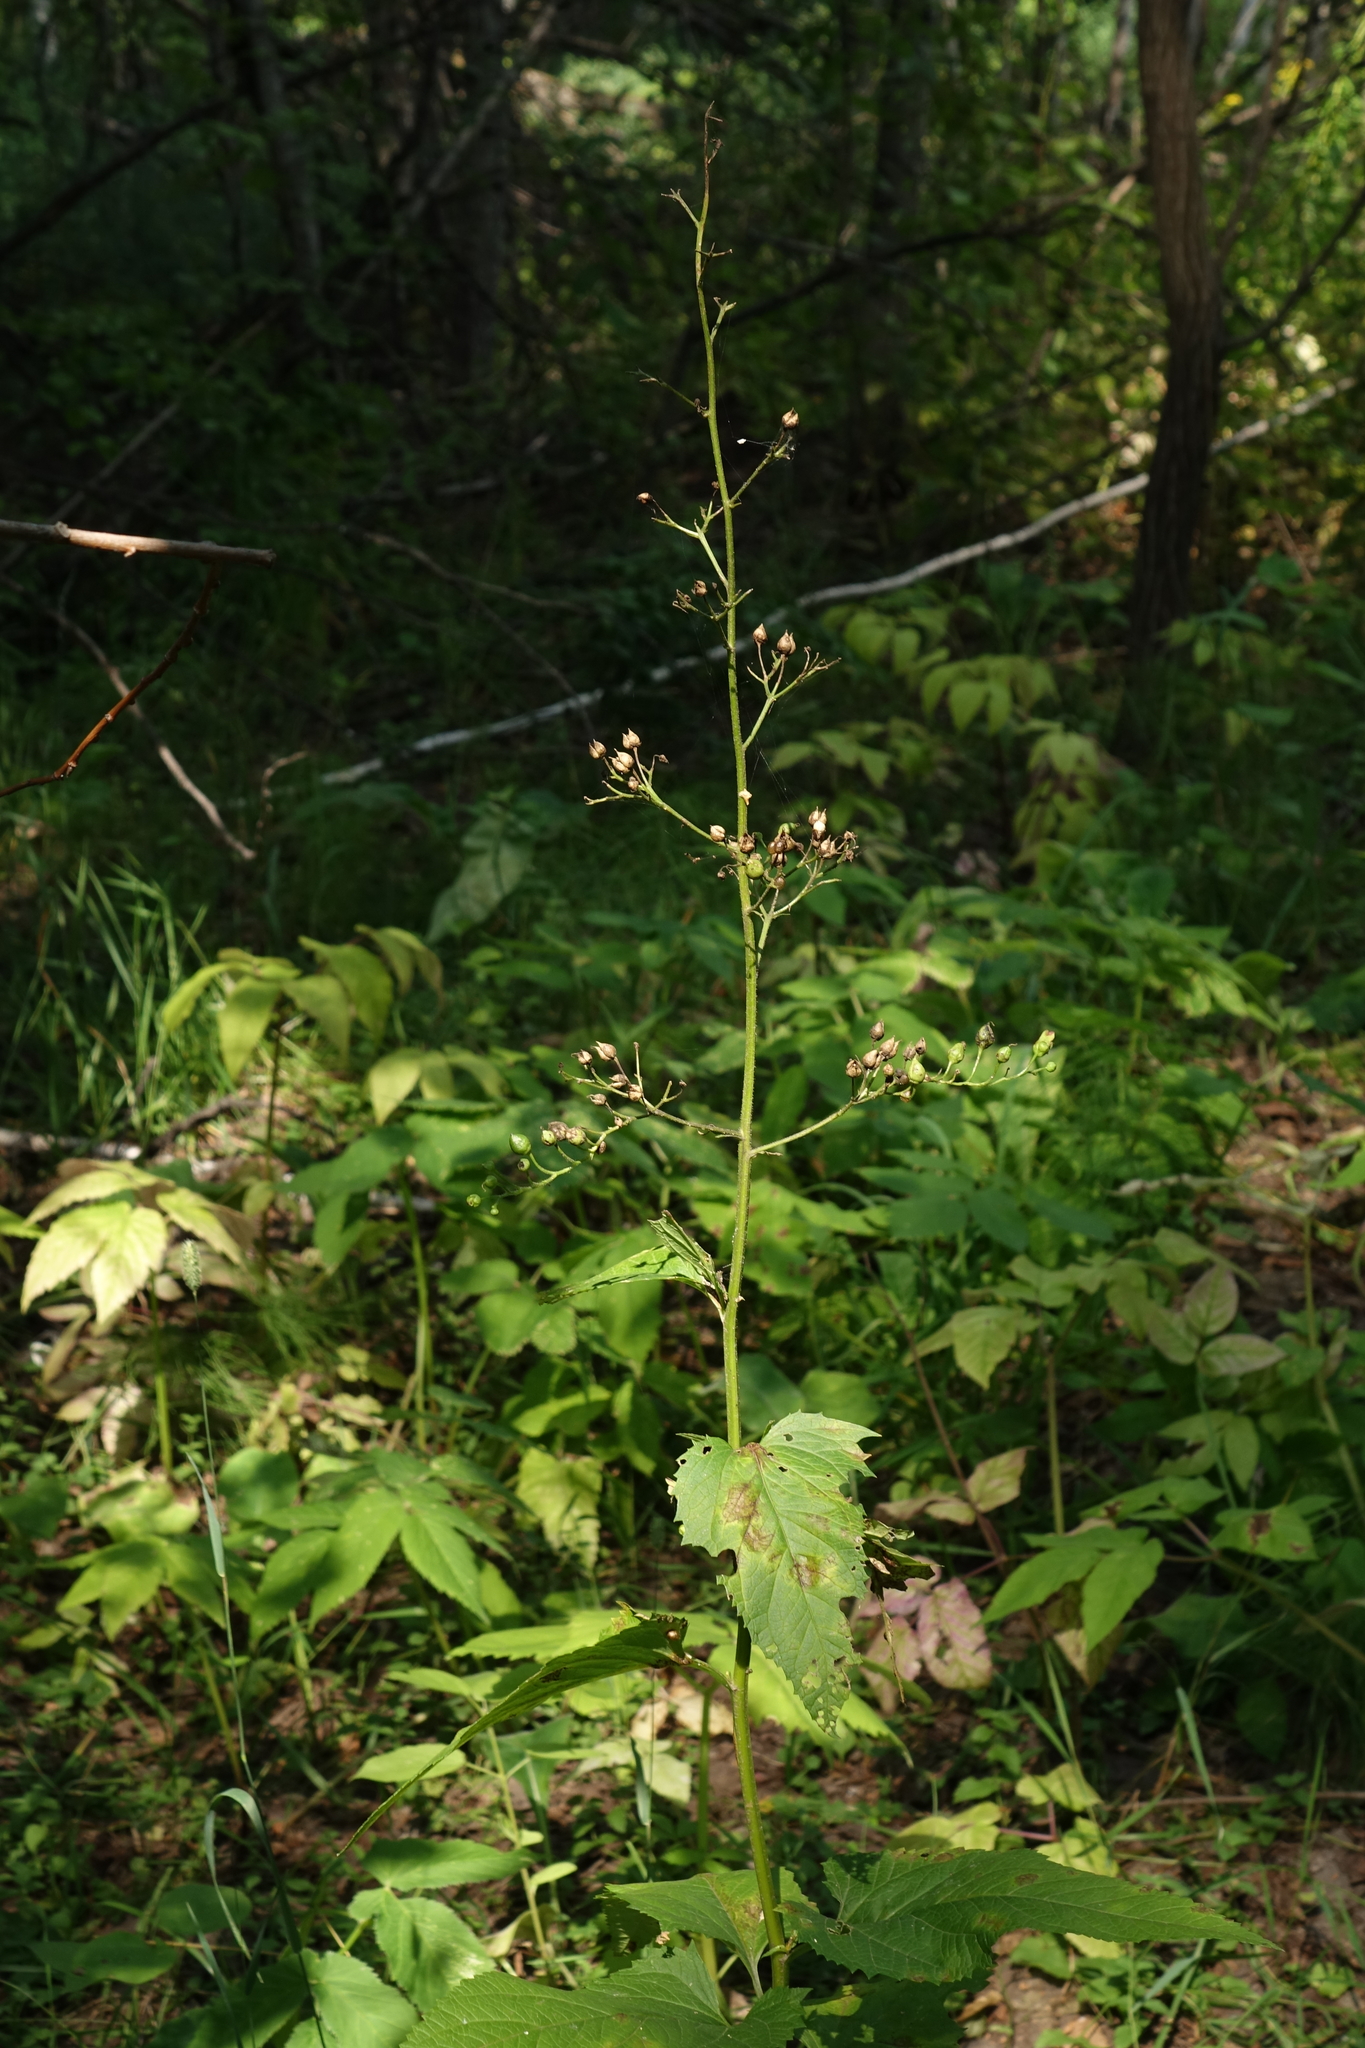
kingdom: Plantae
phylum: Tracheophyta
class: Magnoliopsida
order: Lamiales
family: Scrophulariaceae
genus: Scrophularia
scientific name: Scrophularia nodosa
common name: Common figwort
